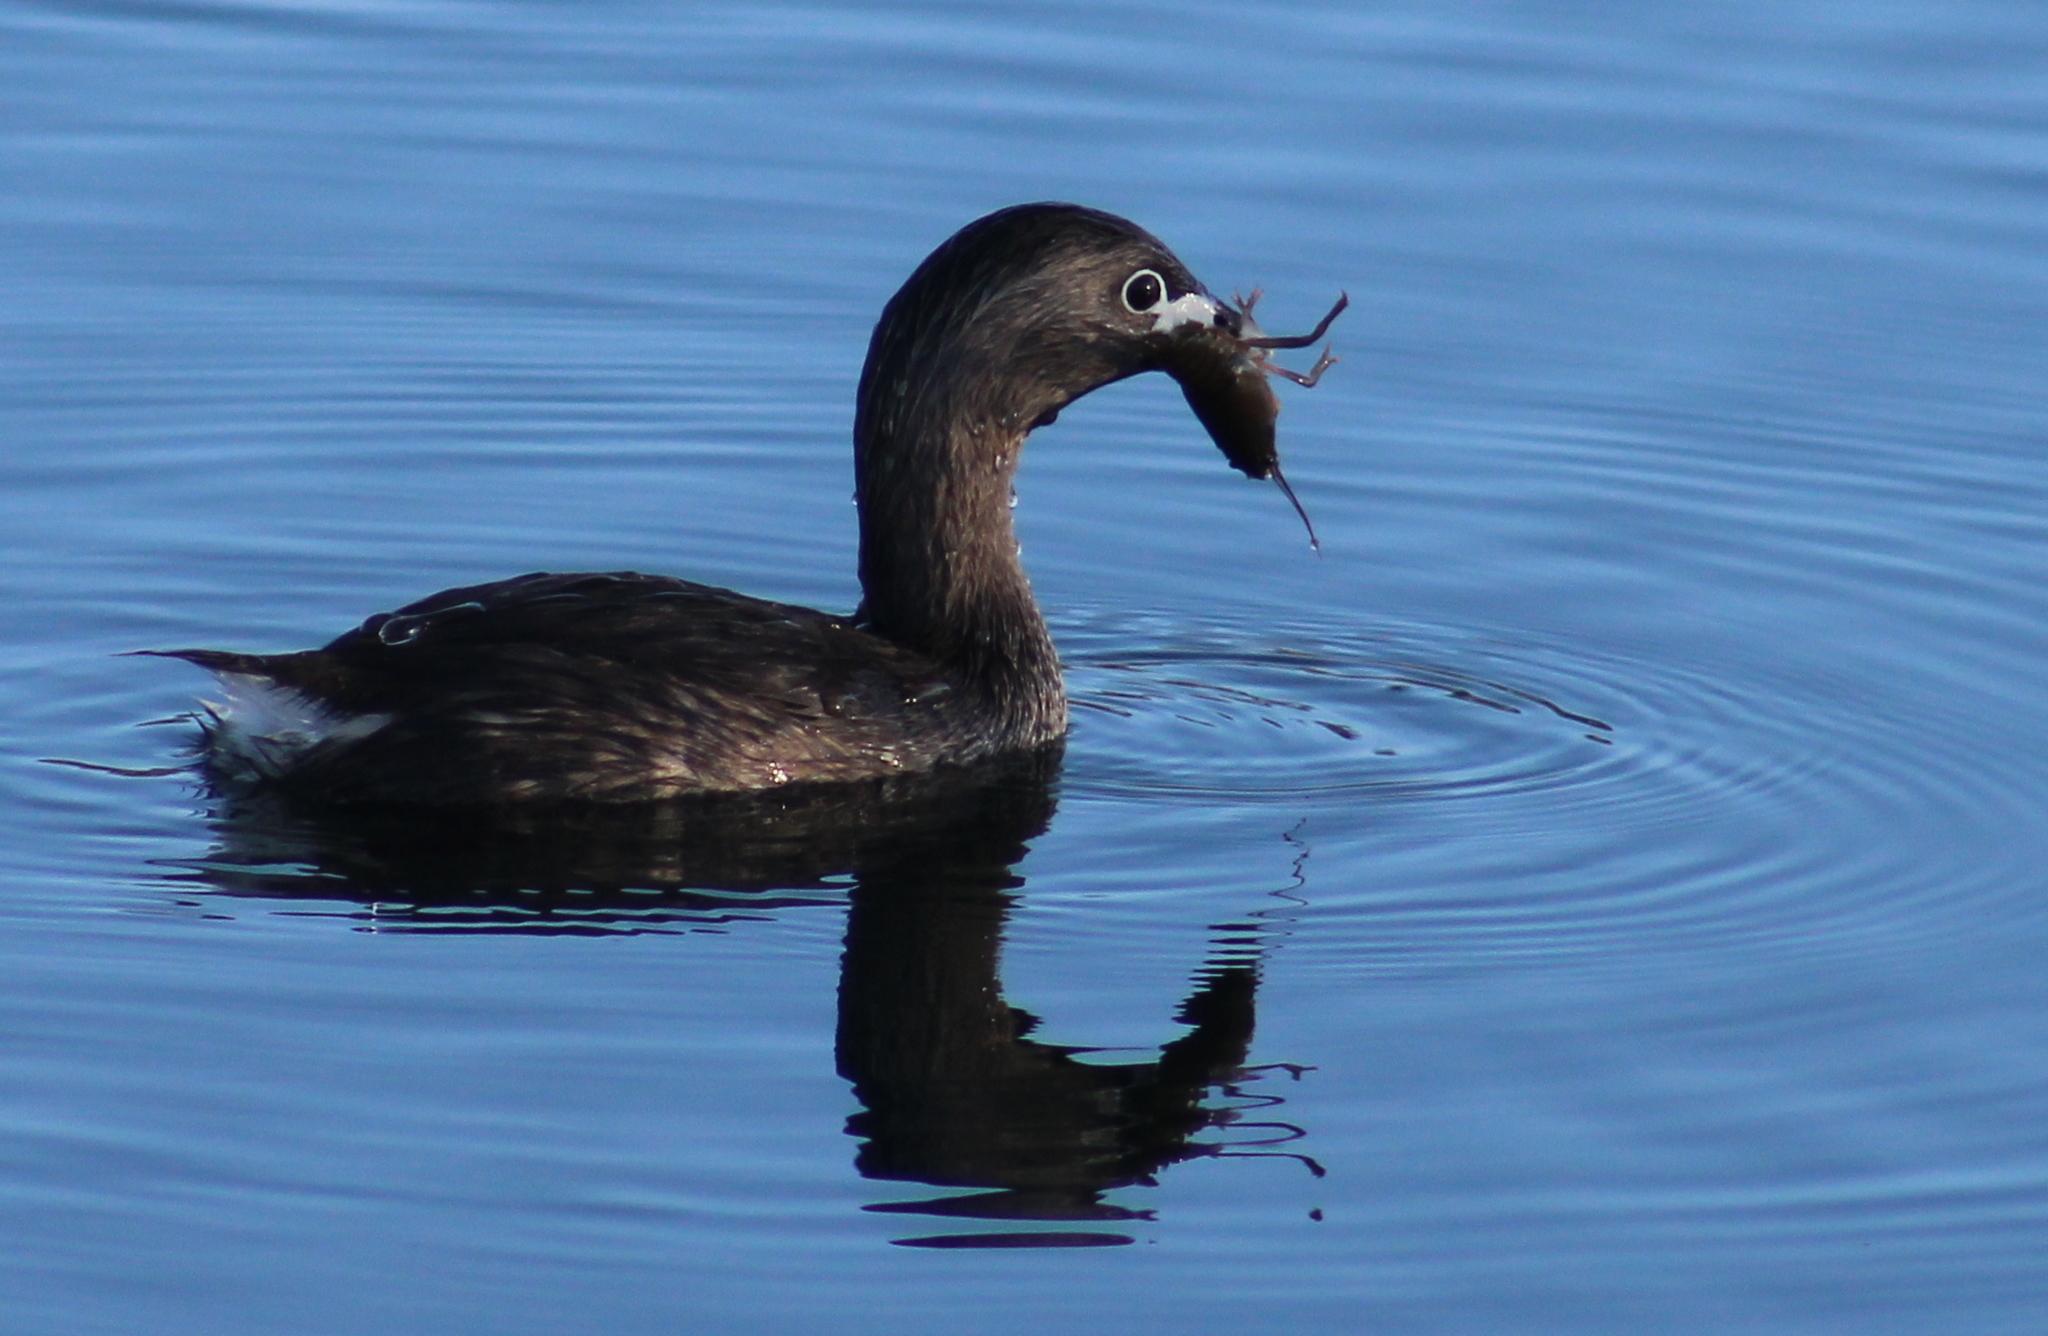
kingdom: Animalia
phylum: Chordata
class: Aves
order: Podicipediformes
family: Podicipedidae
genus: Podilymbus
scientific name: Podilymbus podiceps
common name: Pied-billed grebe
